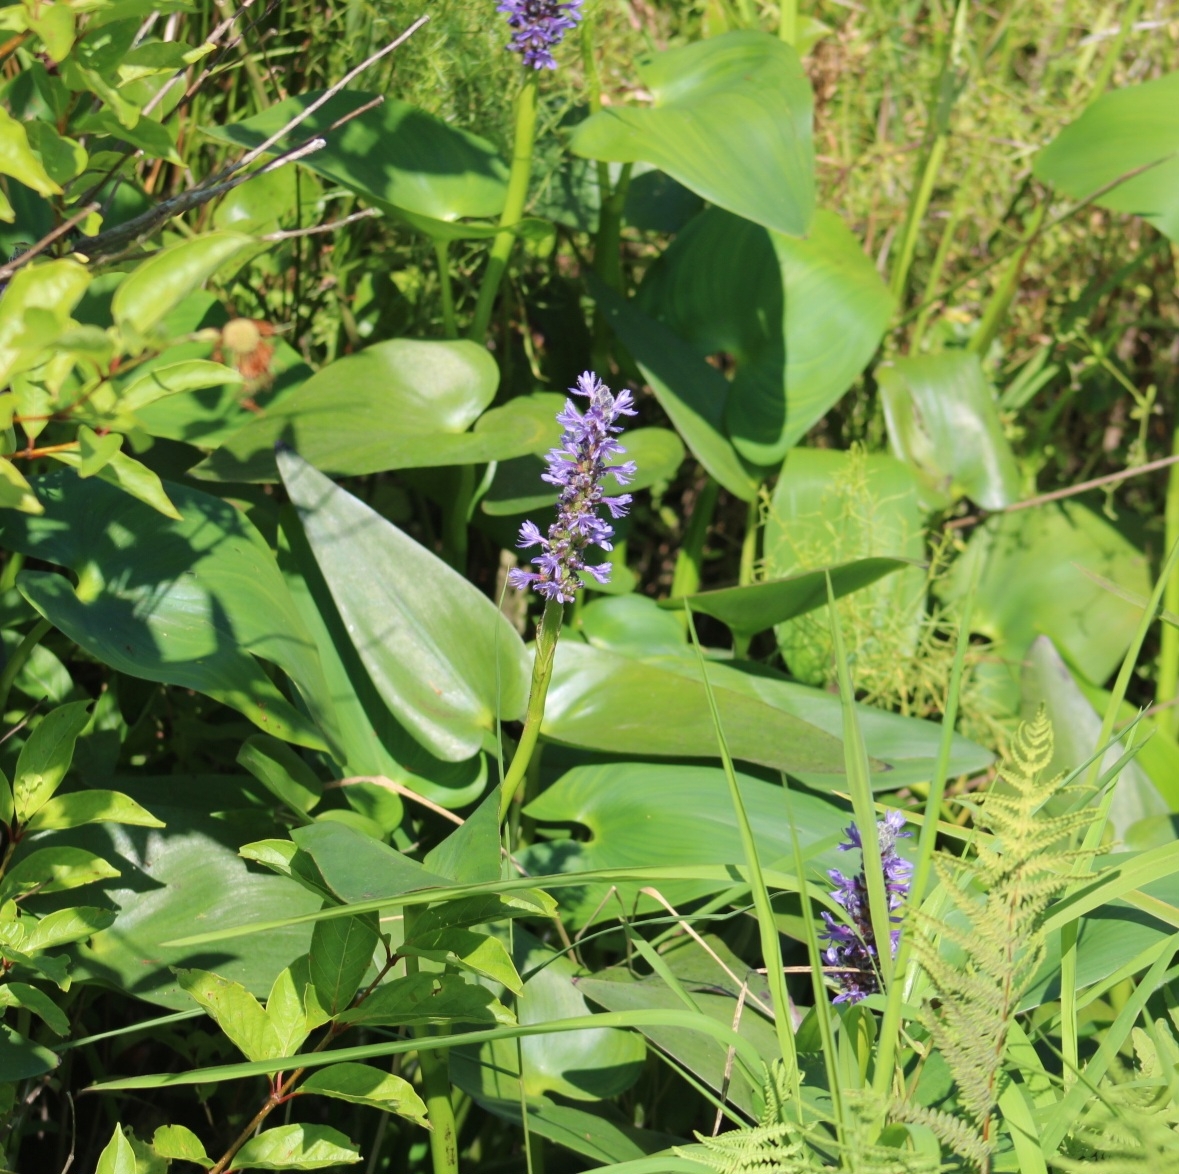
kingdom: Plantae
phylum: Tracheophyta
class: Liliopsida
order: Commelinales
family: Pontederiaceae
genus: Pontederia
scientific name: Pontederia cordata
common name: Pickerelweed
